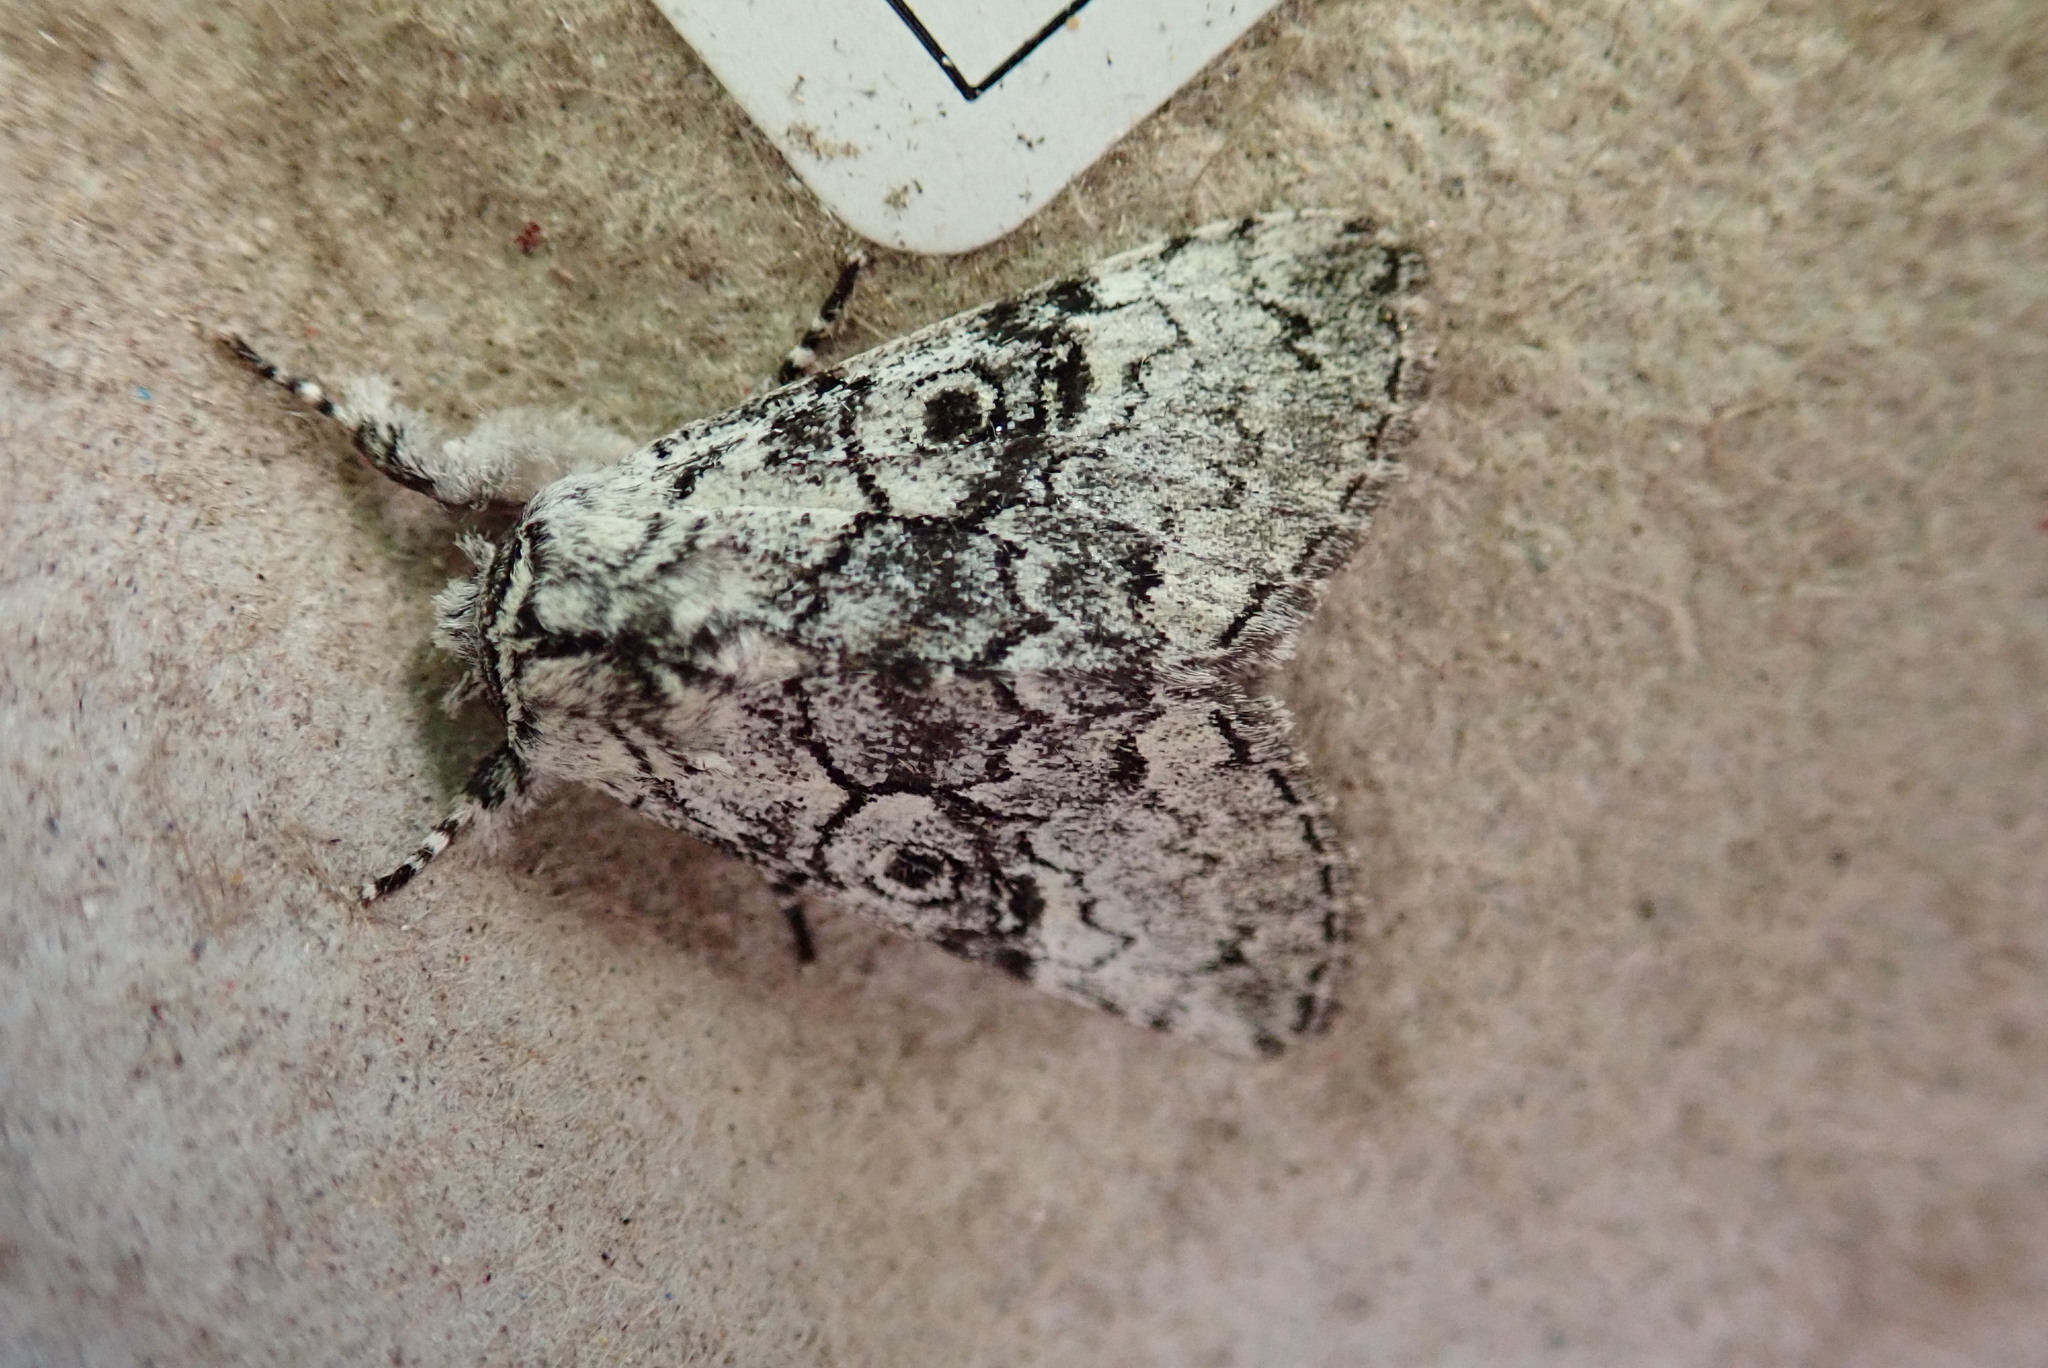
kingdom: Animalia
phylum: Arthropoda
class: Insecta
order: Lepidoptera
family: Noctuidae
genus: Charadra
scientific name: Charadra deridens
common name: Marbled tuffet
